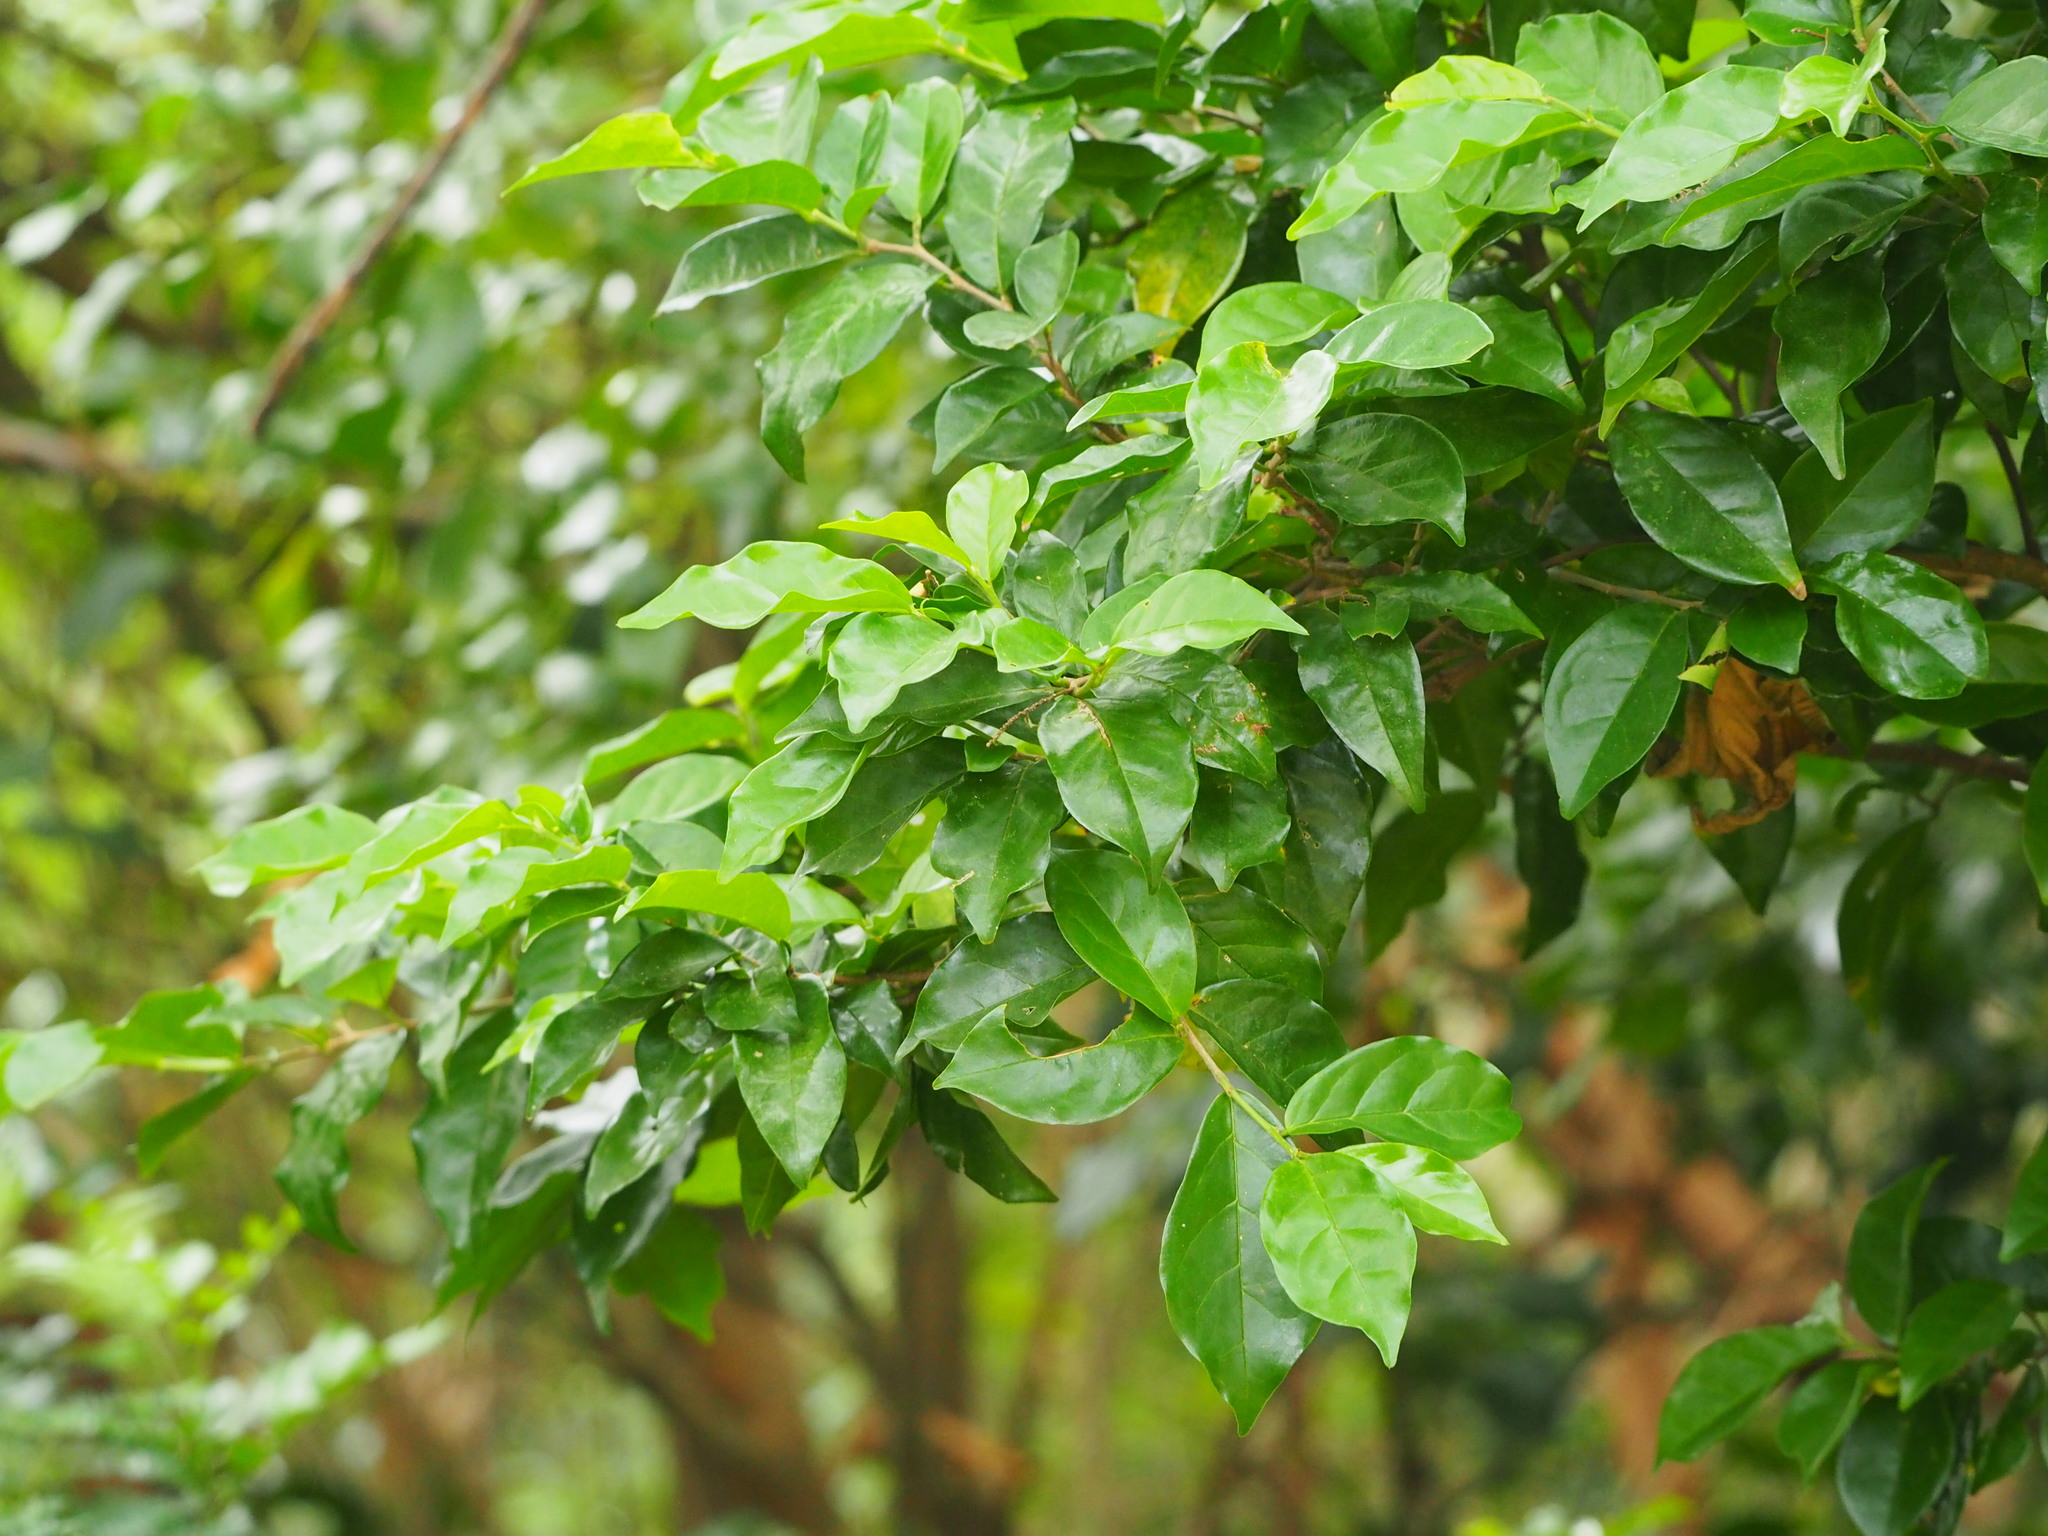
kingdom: Plantae
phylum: Tracheophyta
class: Magnoliopsida
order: Malpighiales
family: Phyllanthaceae
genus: Antidesma
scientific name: Antidesma montanum
